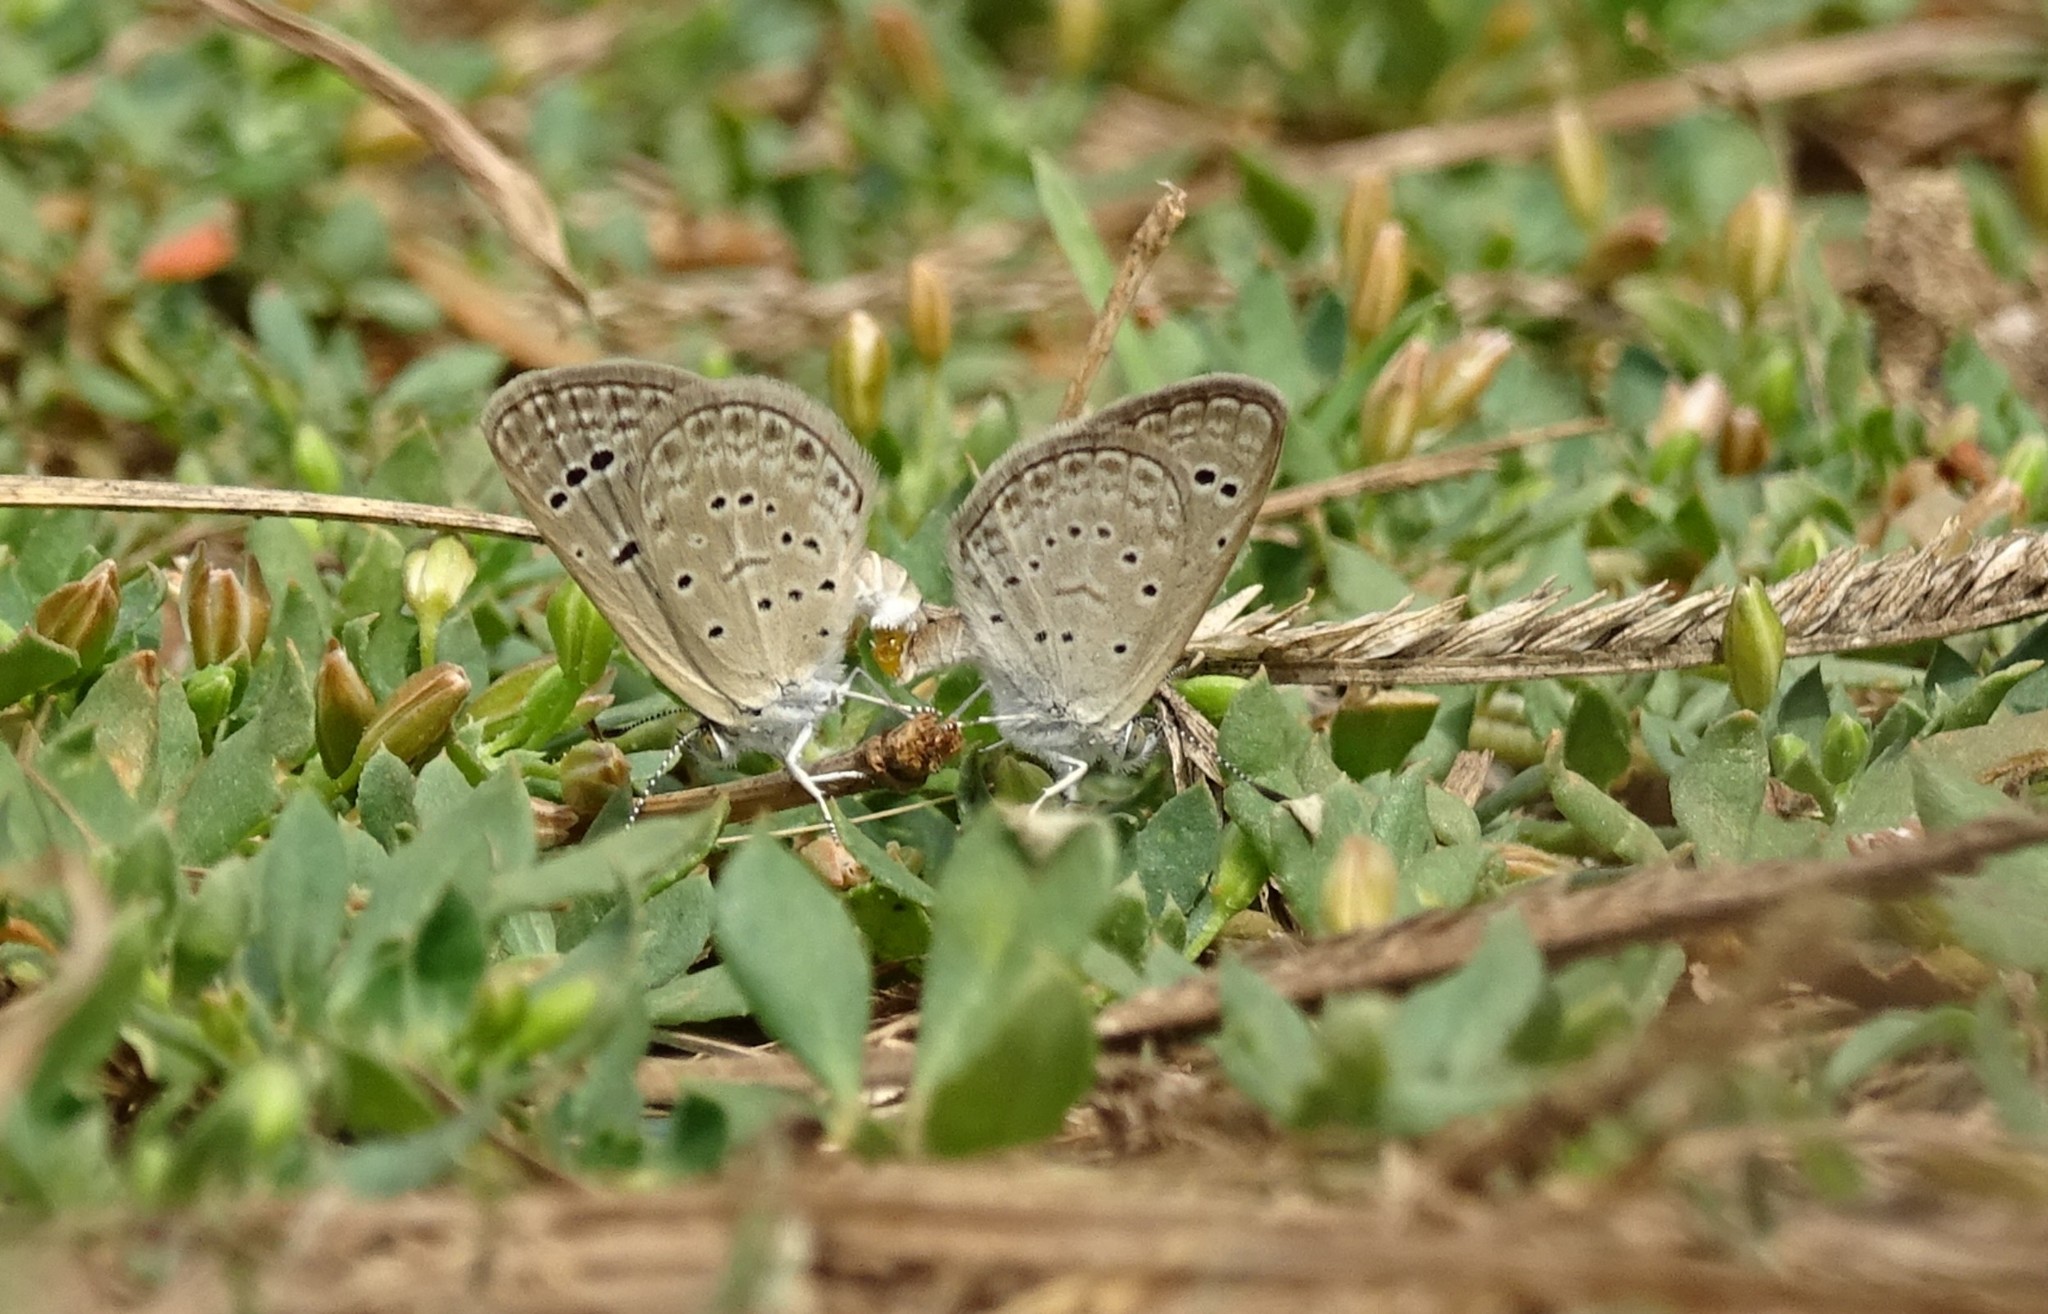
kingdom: Animalia
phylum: Arthropoda
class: Insecta
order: Lepidoptera
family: Lycaenidae
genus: Zizeeria
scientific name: Zizeeria karsandra
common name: Dark grass blue
